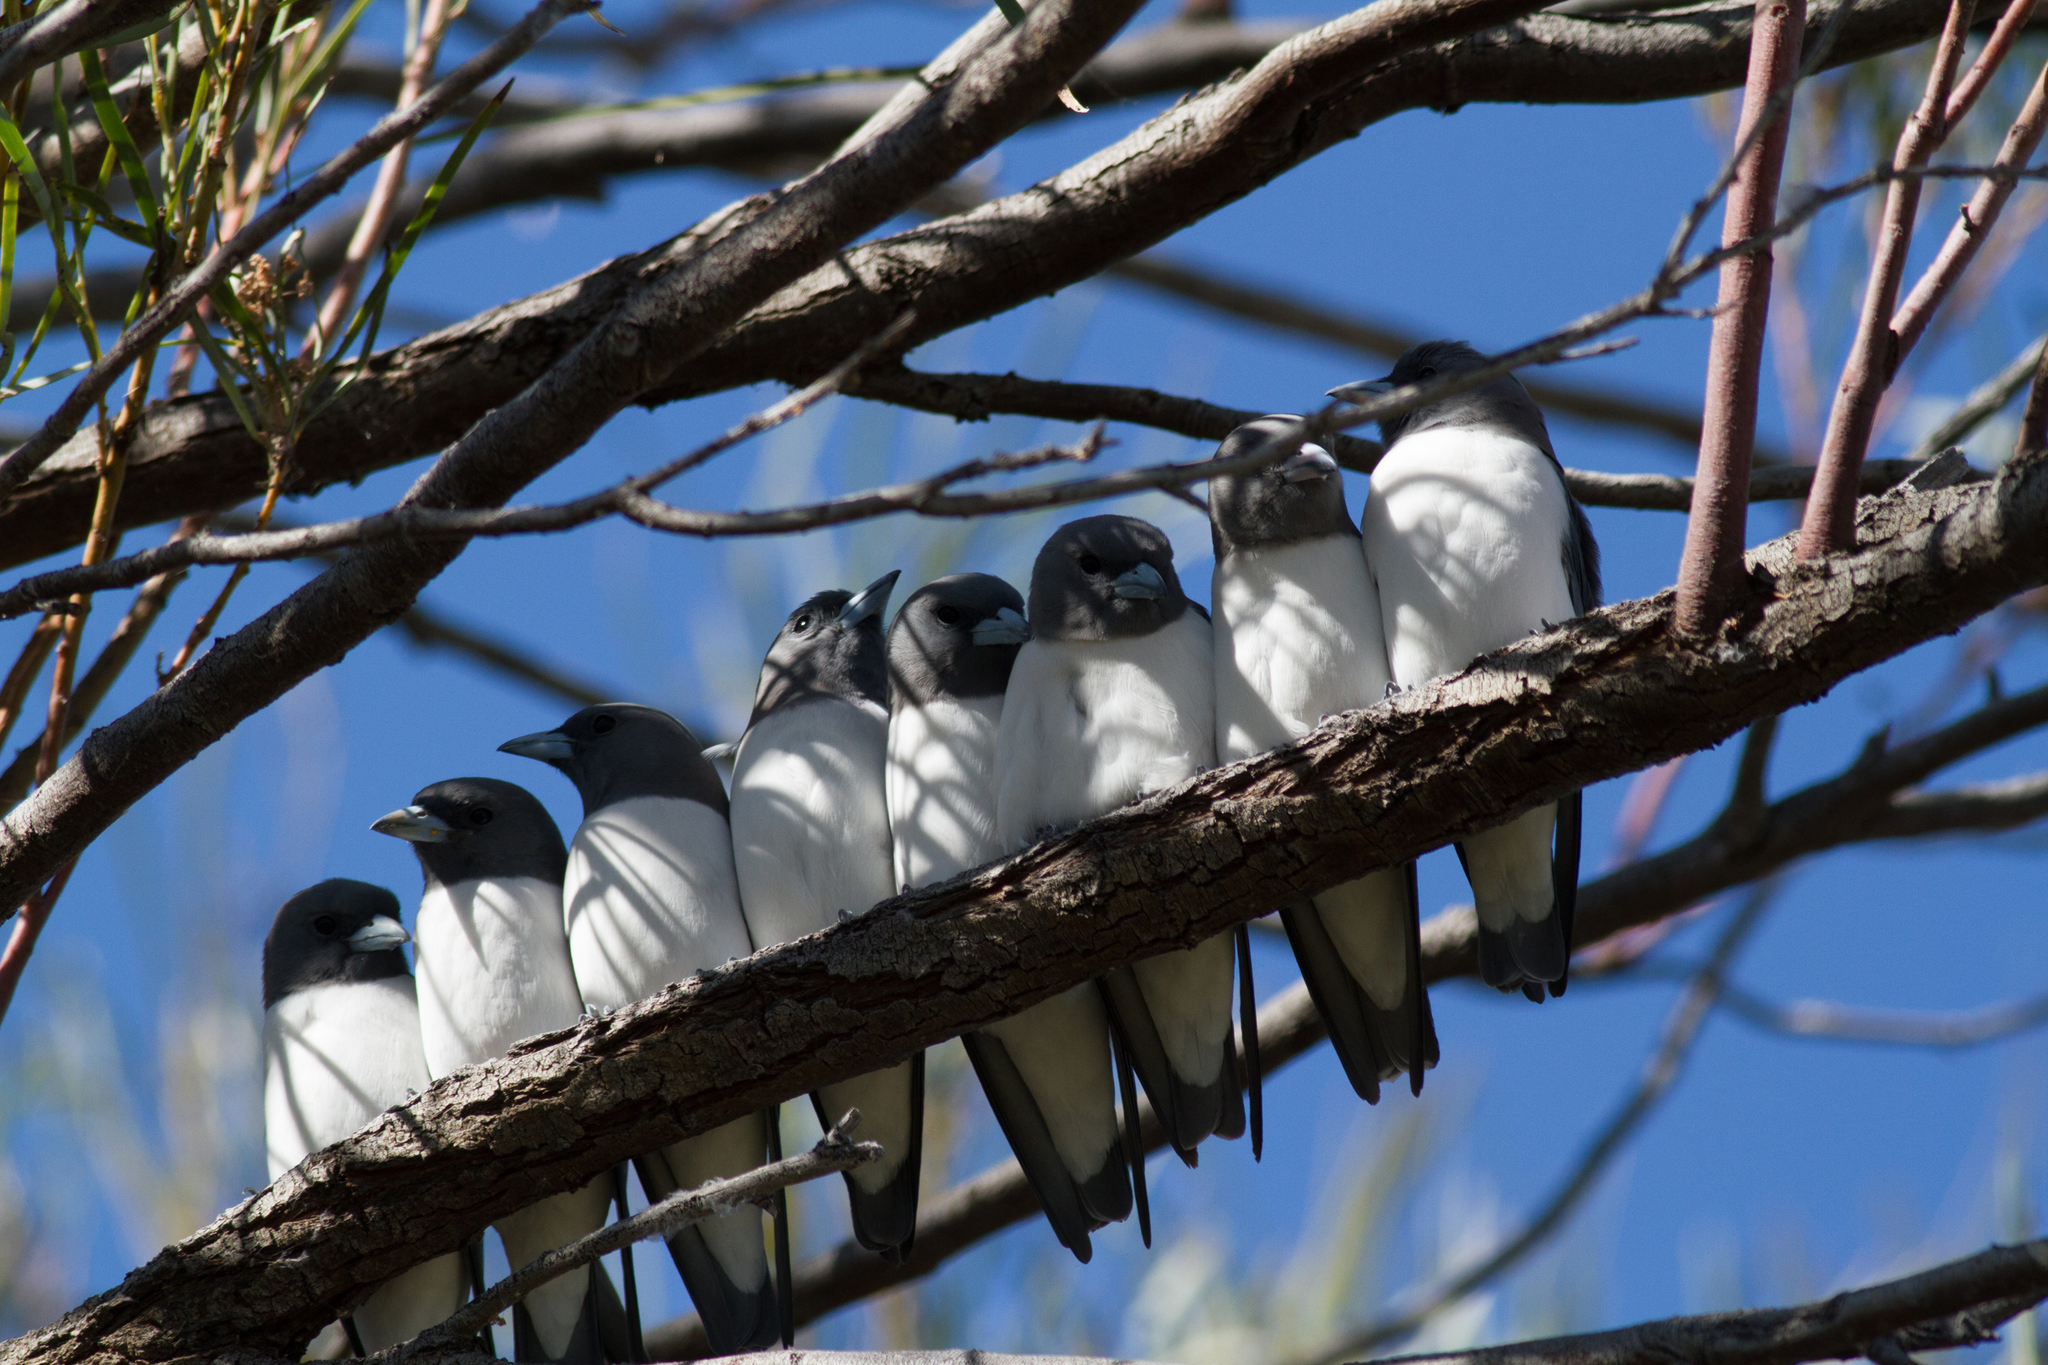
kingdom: Animalia
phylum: Chordata
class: Aves
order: Passeriformes
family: Artamidae
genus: Artamus
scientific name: Artamus leucoryn
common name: White-breasted woodswallow
